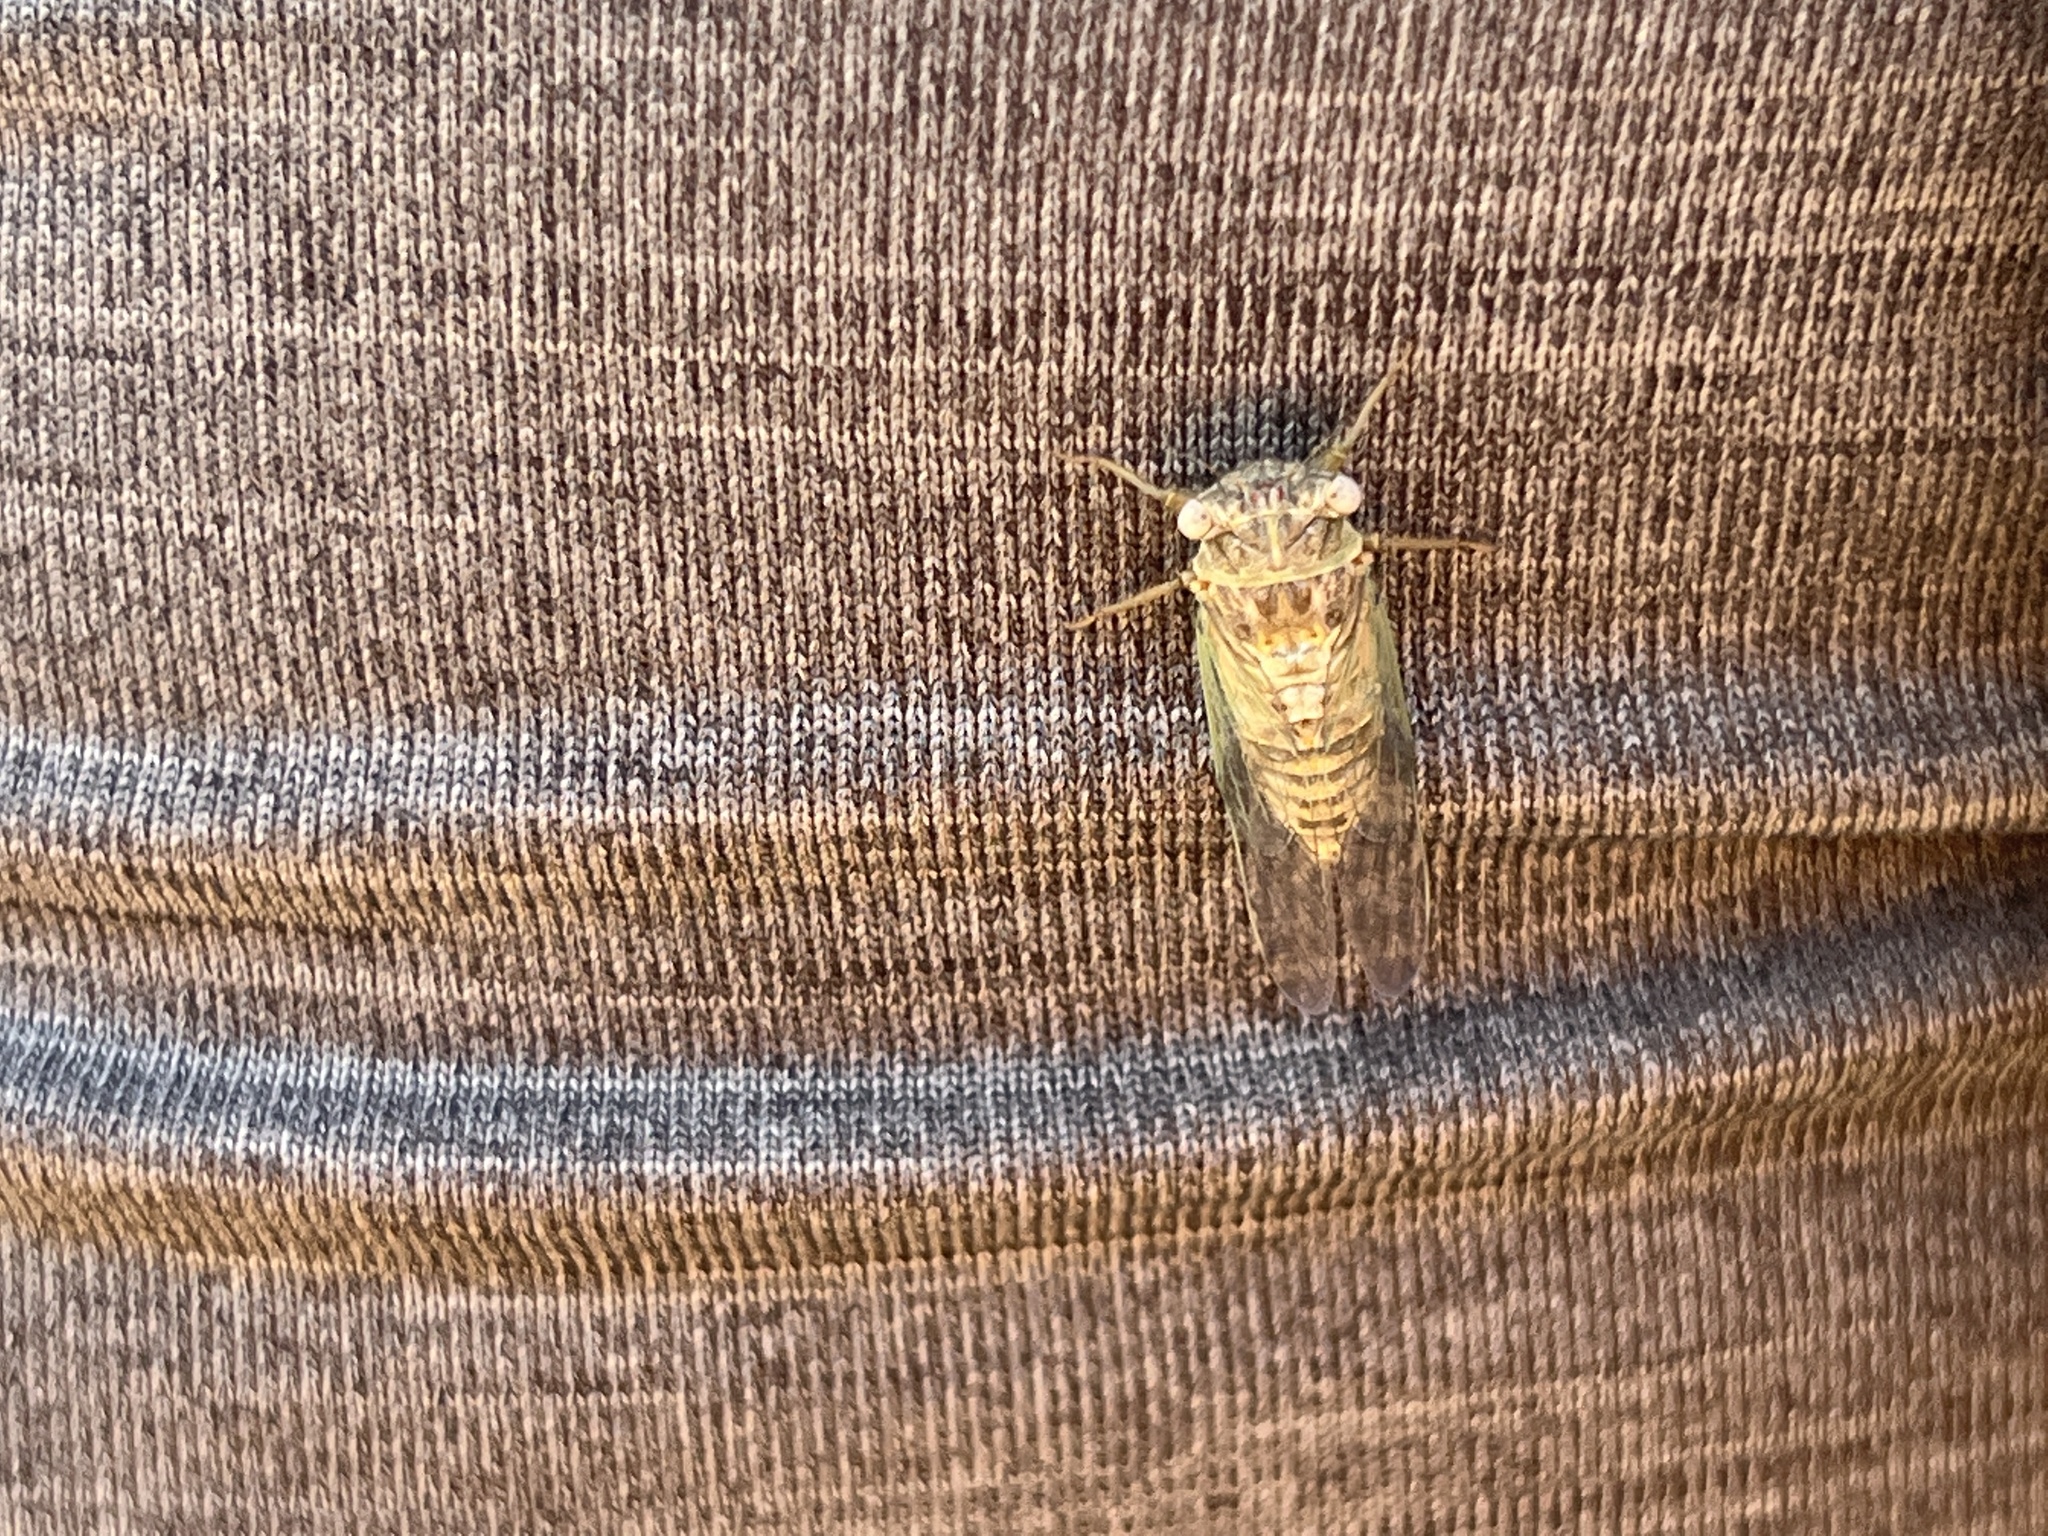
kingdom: Animalia
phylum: Arthropoda
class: Insecta
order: Hemiptera
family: Cicadidae
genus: Pacarina
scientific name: Pacarina puella
